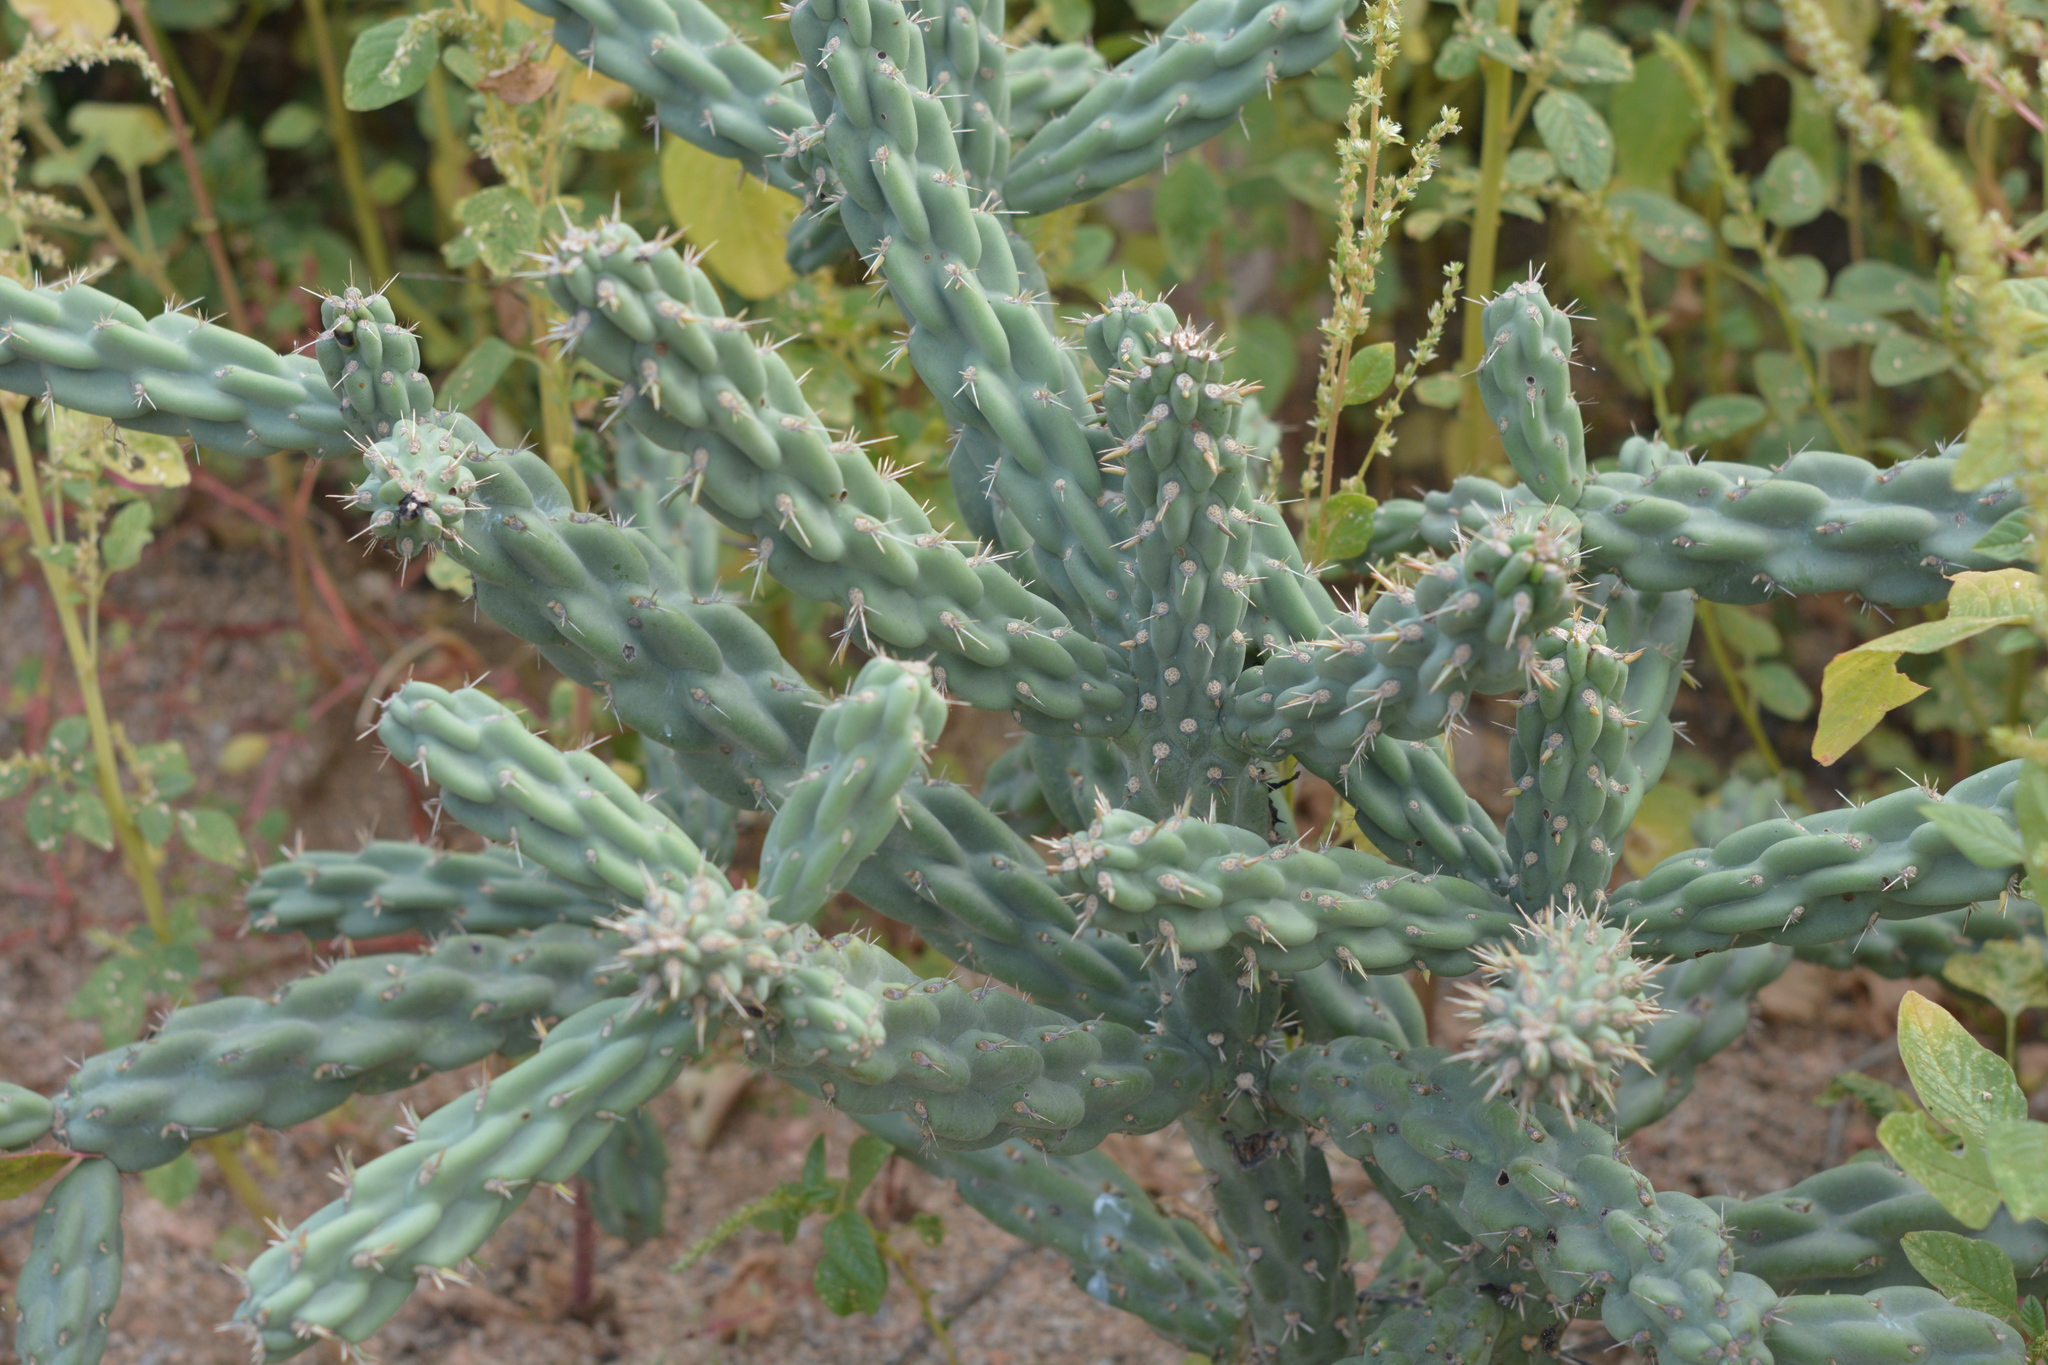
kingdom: Plantae
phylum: Tracheophyta
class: Magnoliopsida
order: Caryophyllales
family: Cactaceae
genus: Cylindropuntia
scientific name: Cylindropuntia cholla
